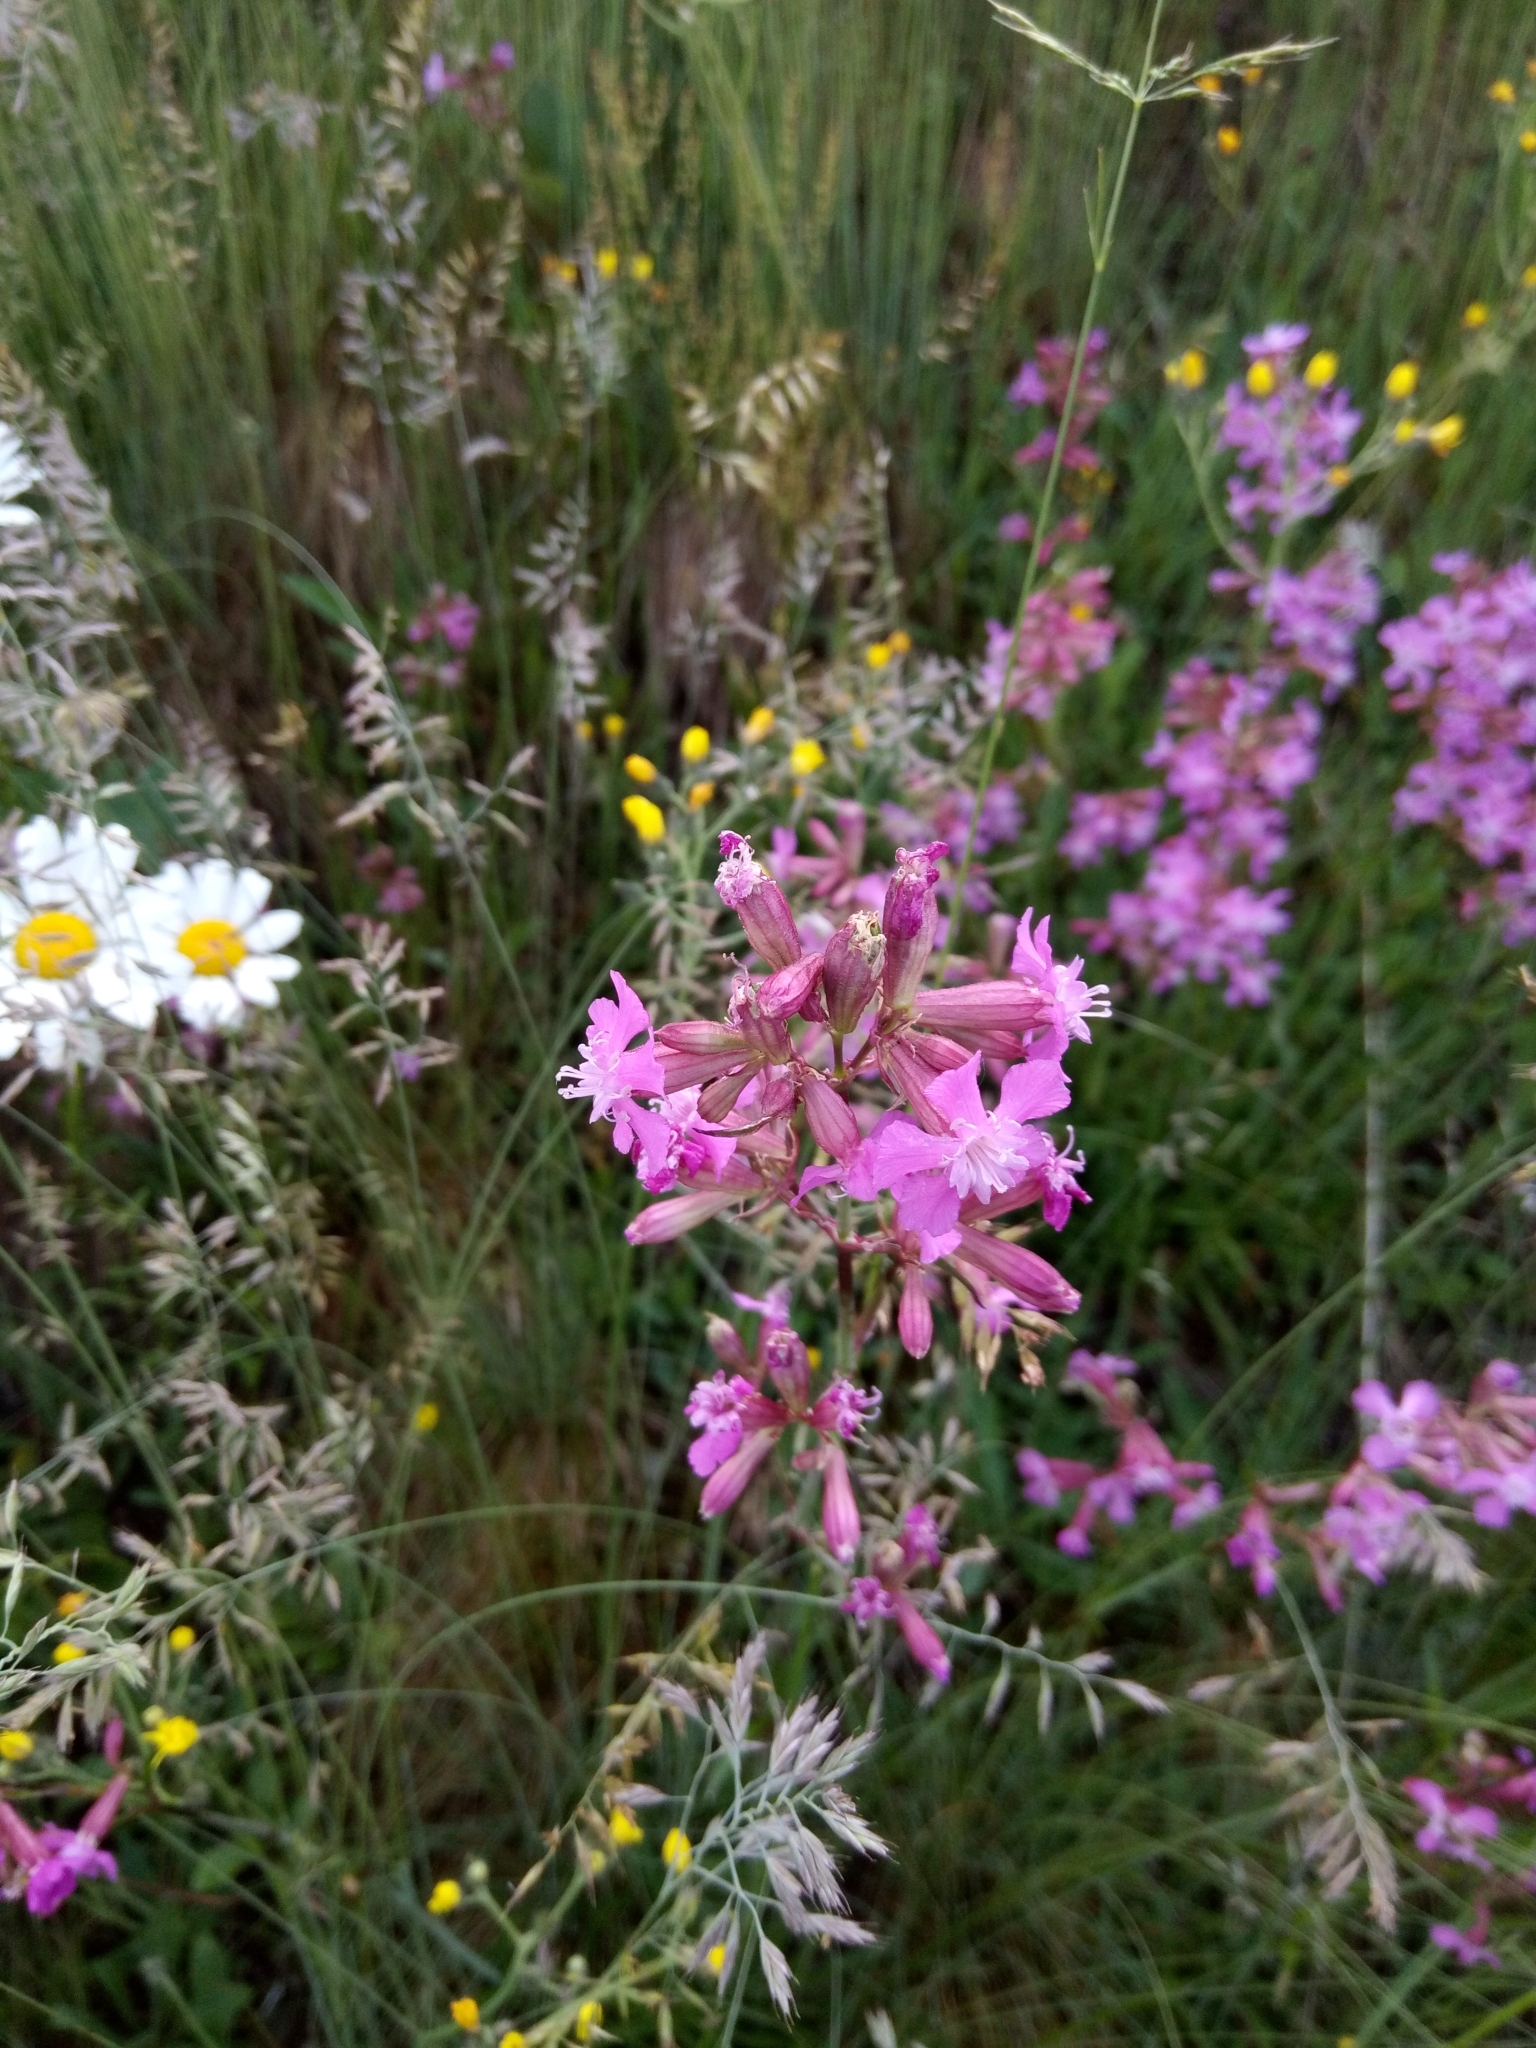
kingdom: Plantae
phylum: Tracheophyta
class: Magnoliopsida
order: Caryophyllales
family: Caryophyllaceae
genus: Viscaria
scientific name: Viscaria vulgaris
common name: Clammy campion
